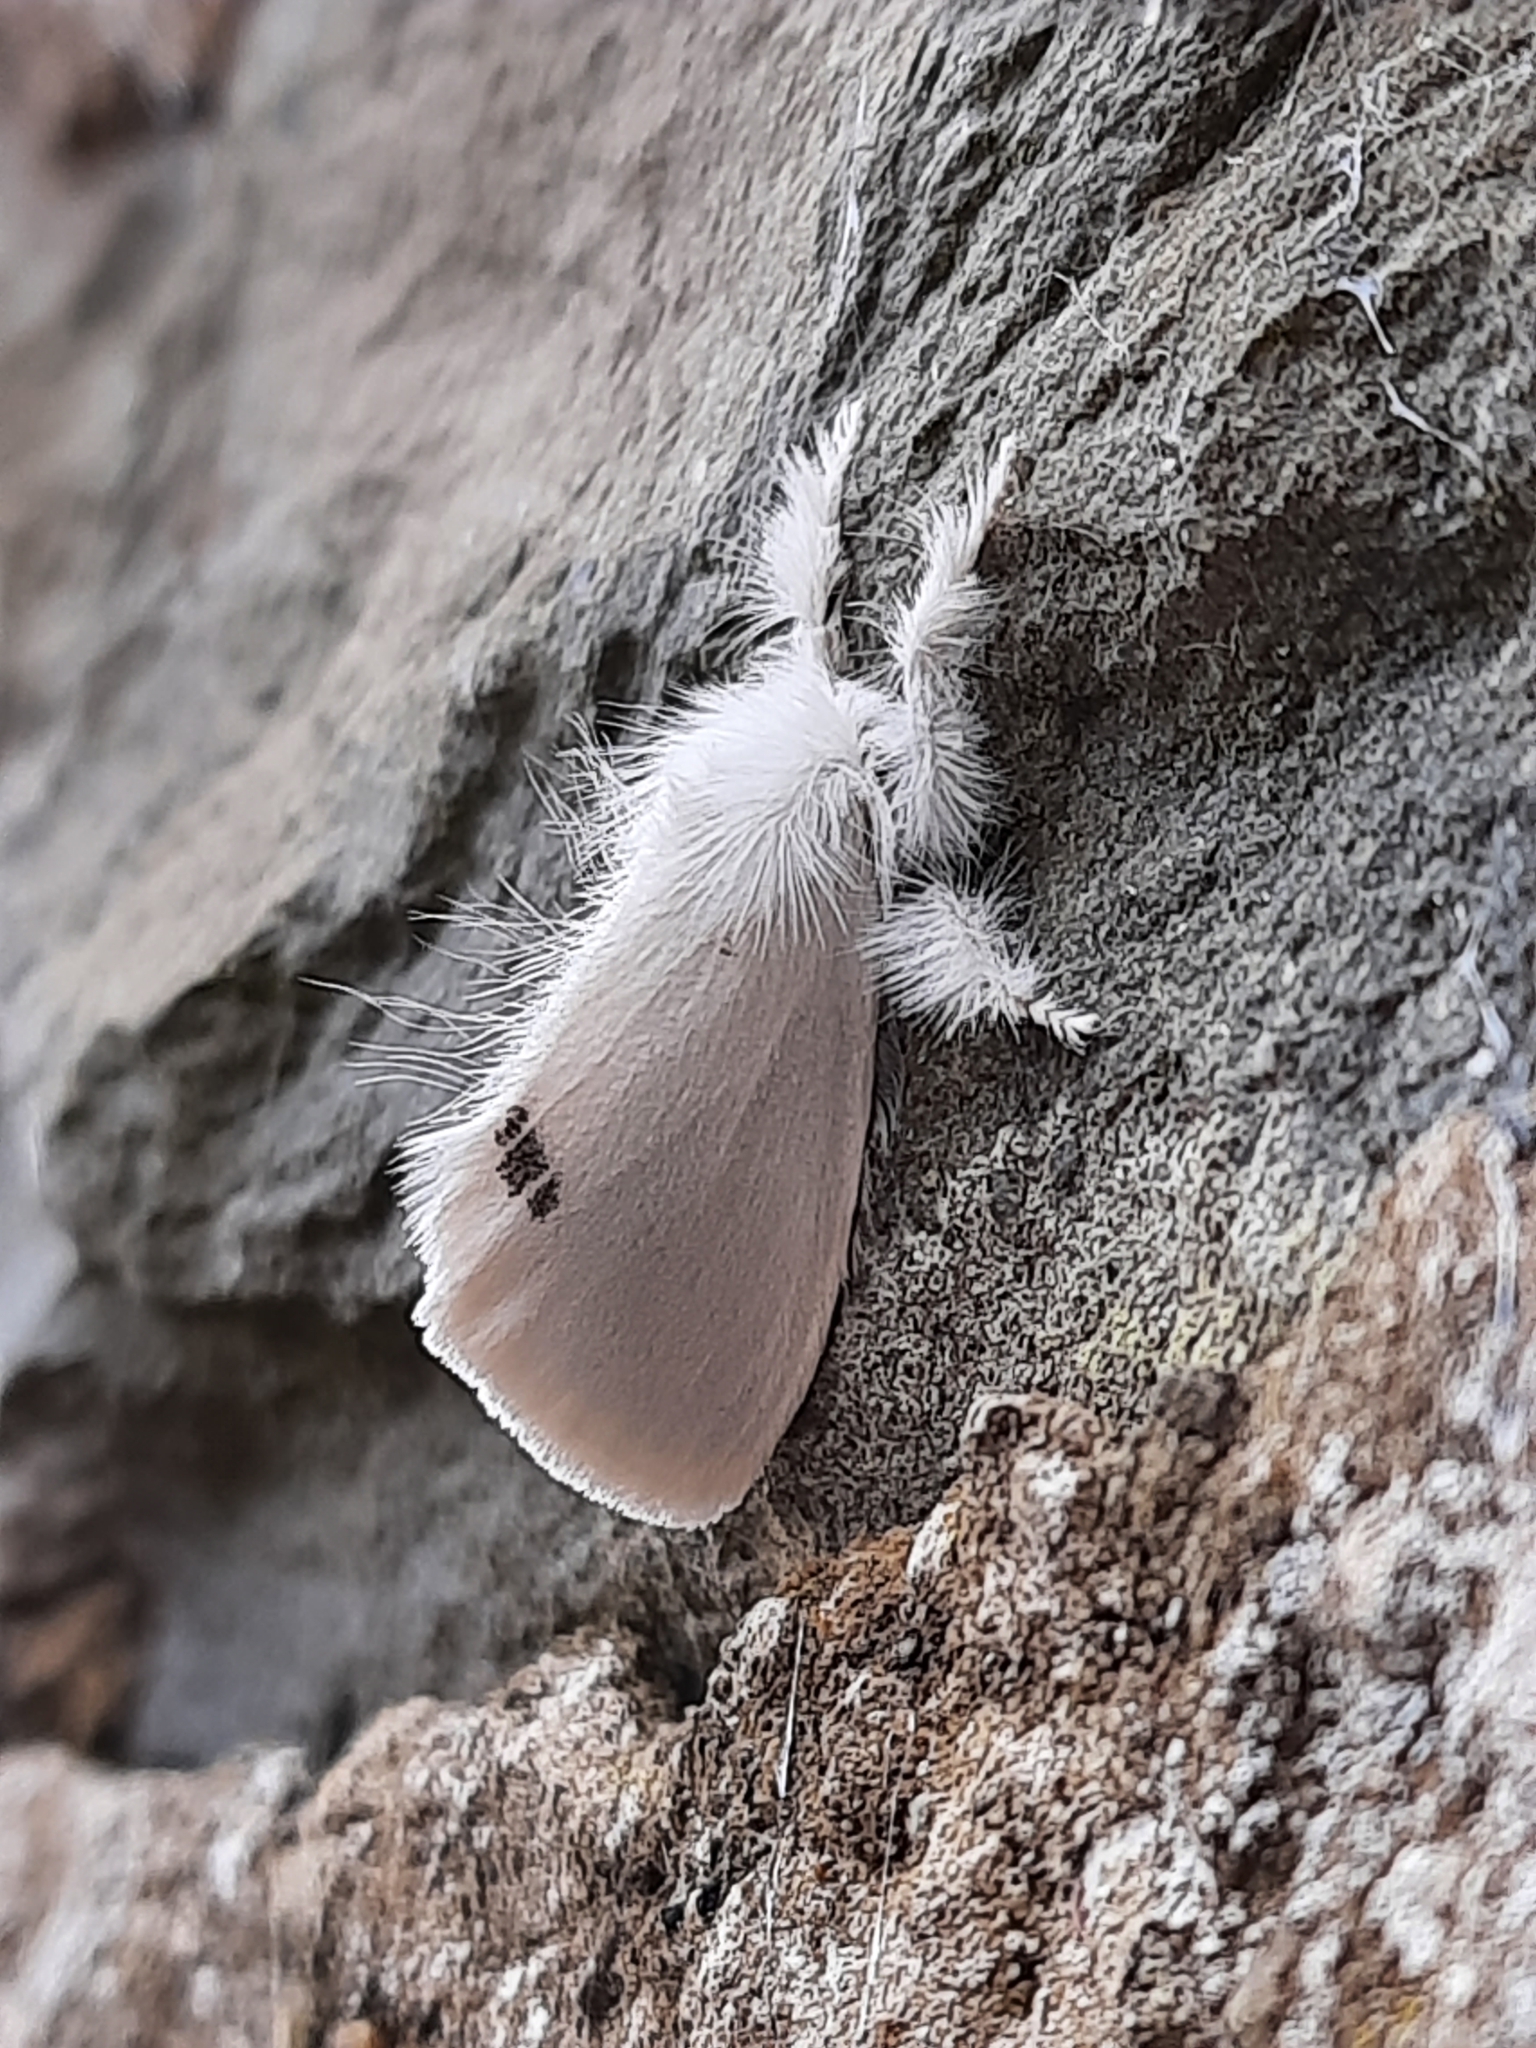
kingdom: Animalia
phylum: Arthropoda
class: Insecta
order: Lepidoptera
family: Erebidae
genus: Sphrageidus
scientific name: Sphrageidus similis
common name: Yellow-tail
